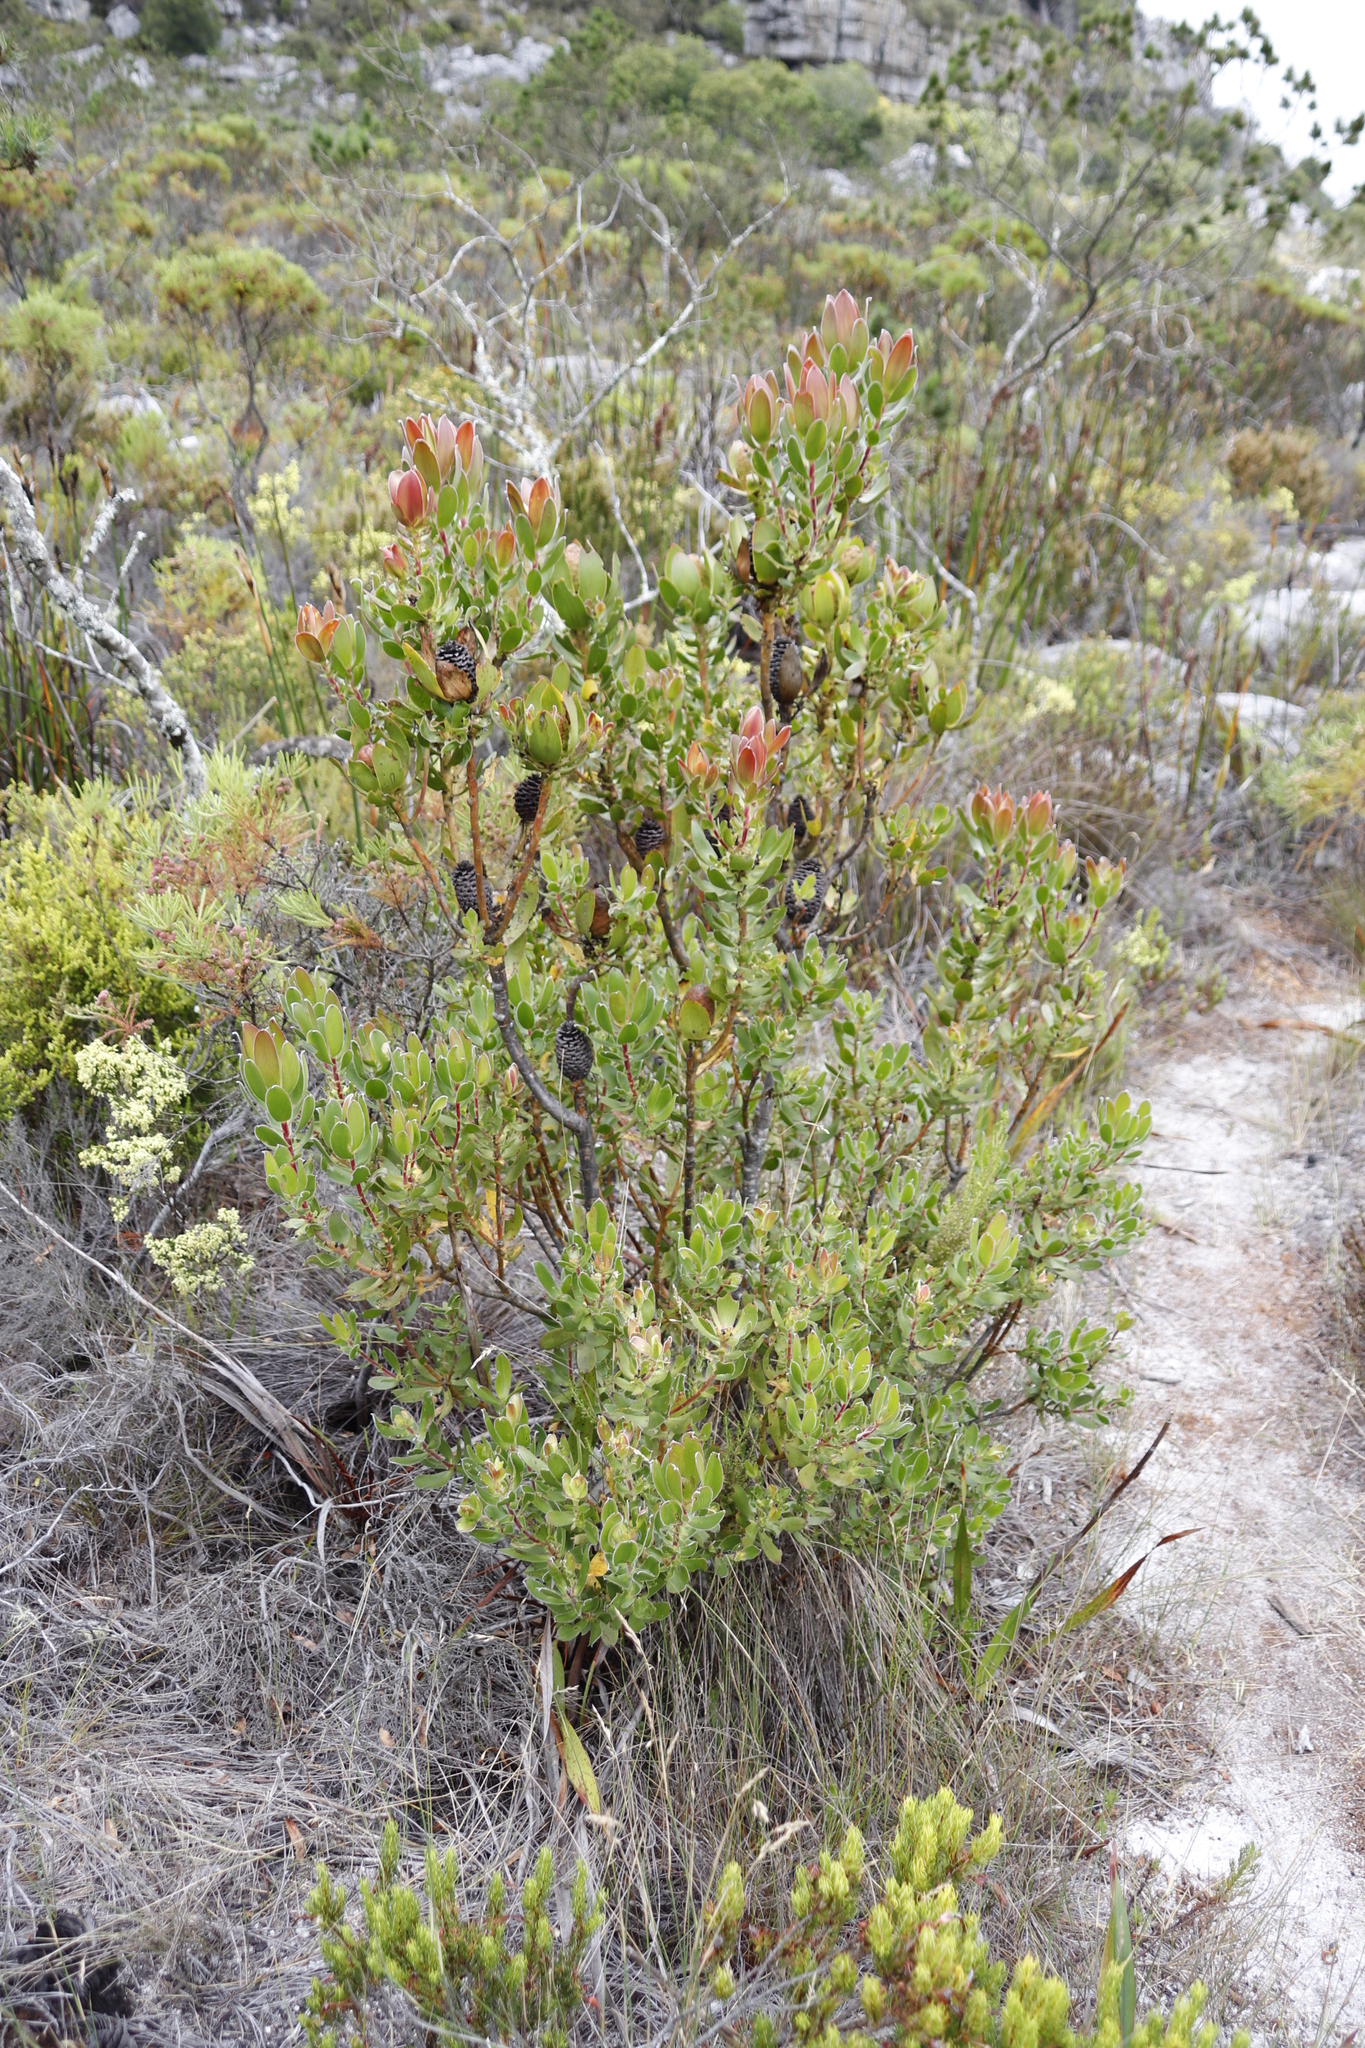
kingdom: Plantae
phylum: Tracheophyta
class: Magnoliopsida
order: Proteales
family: Proteaceae
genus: Leucadendron
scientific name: Leucadendron strobilinum
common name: Mountain rose
